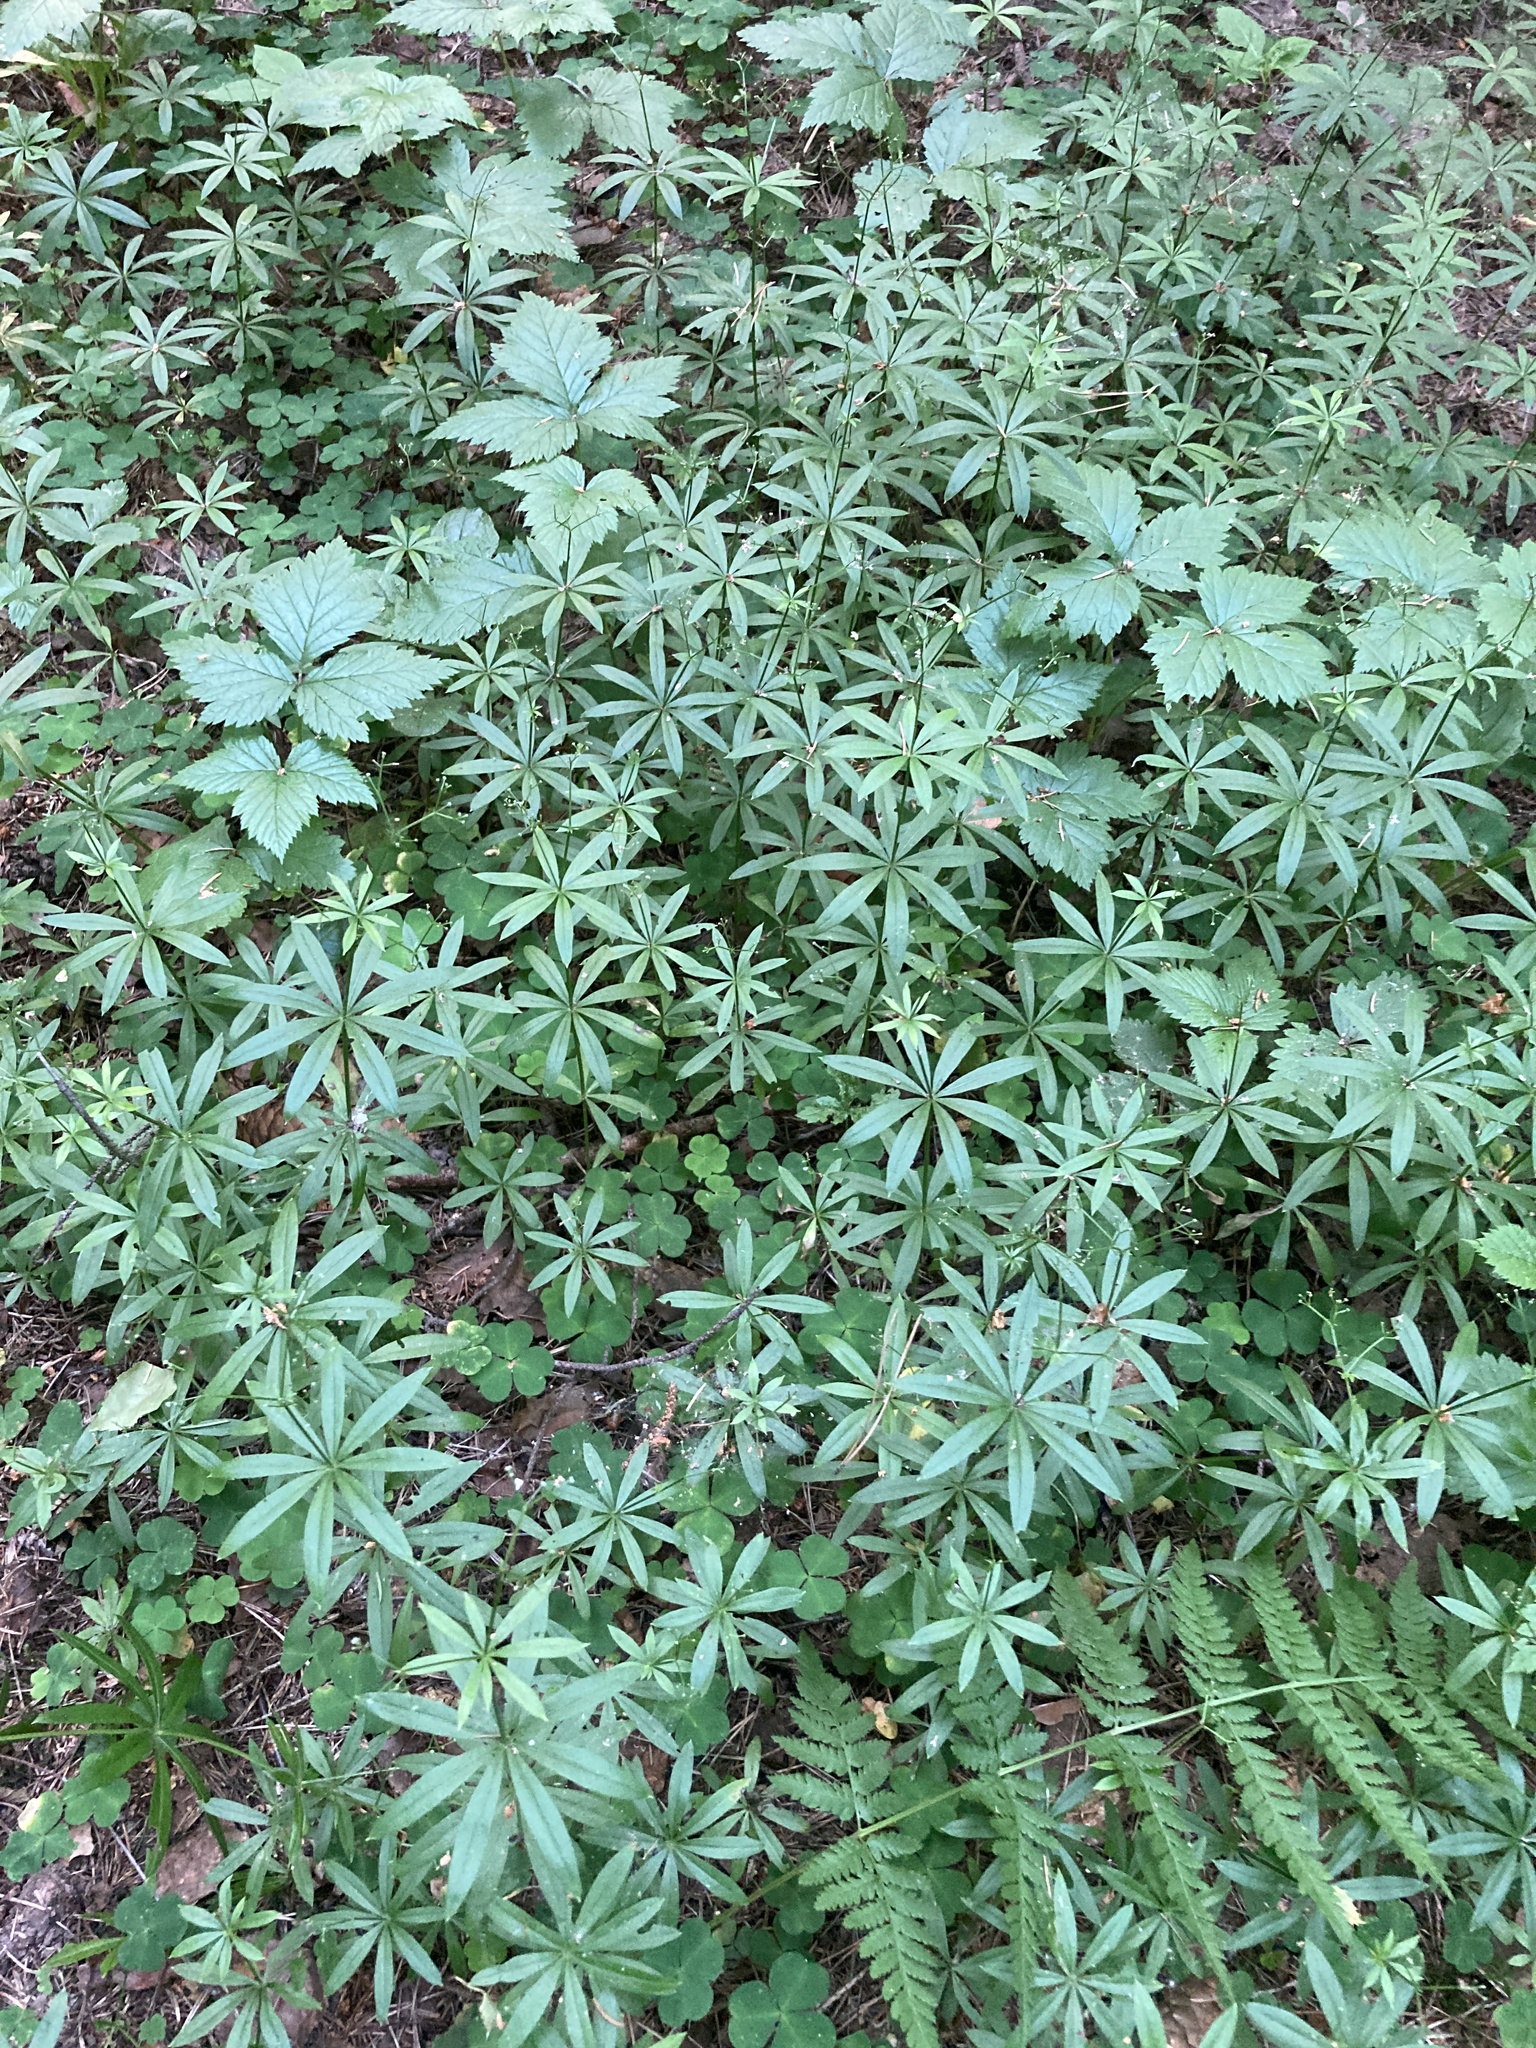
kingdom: Plantae
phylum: Tracheophyta
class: Magnoliopsida
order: Gentianales
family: Rubiaceae
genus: Galium
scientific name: Galium odoratum
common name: Sweet woodruff
